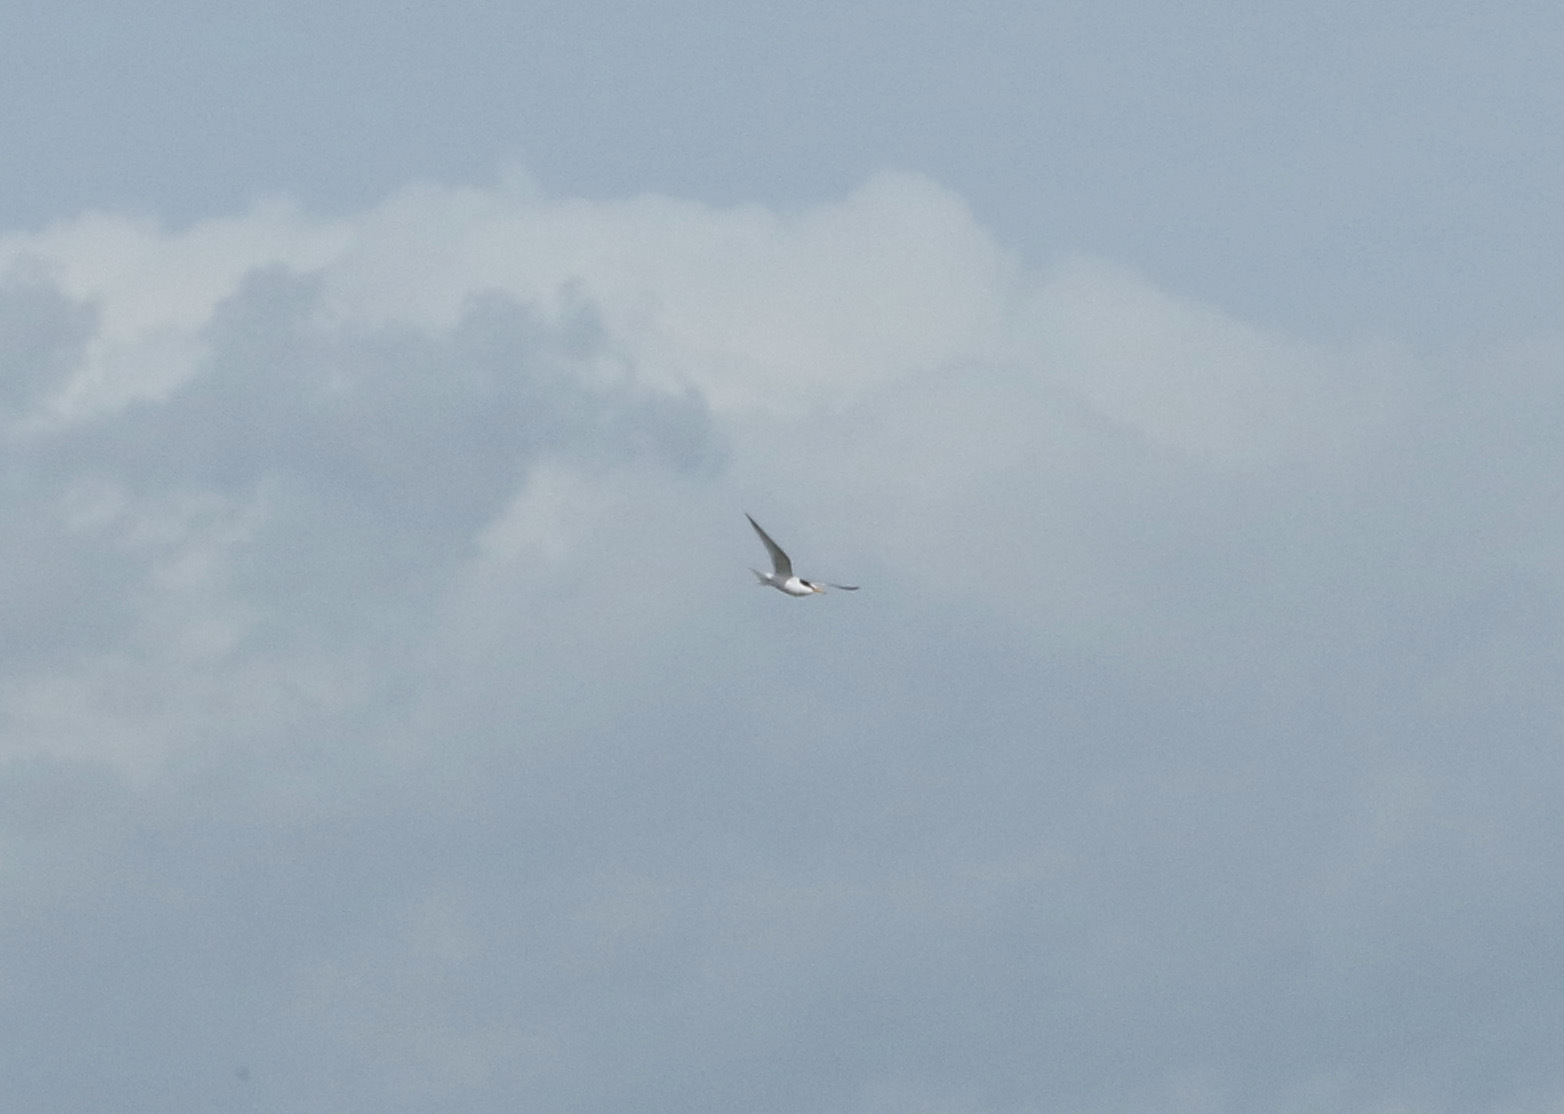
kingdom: Animalia
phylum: Chordata
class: Aves
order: Charadriiformes
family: Laridae
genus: Sternula
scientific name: Sternula albifrons
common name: Little tern
